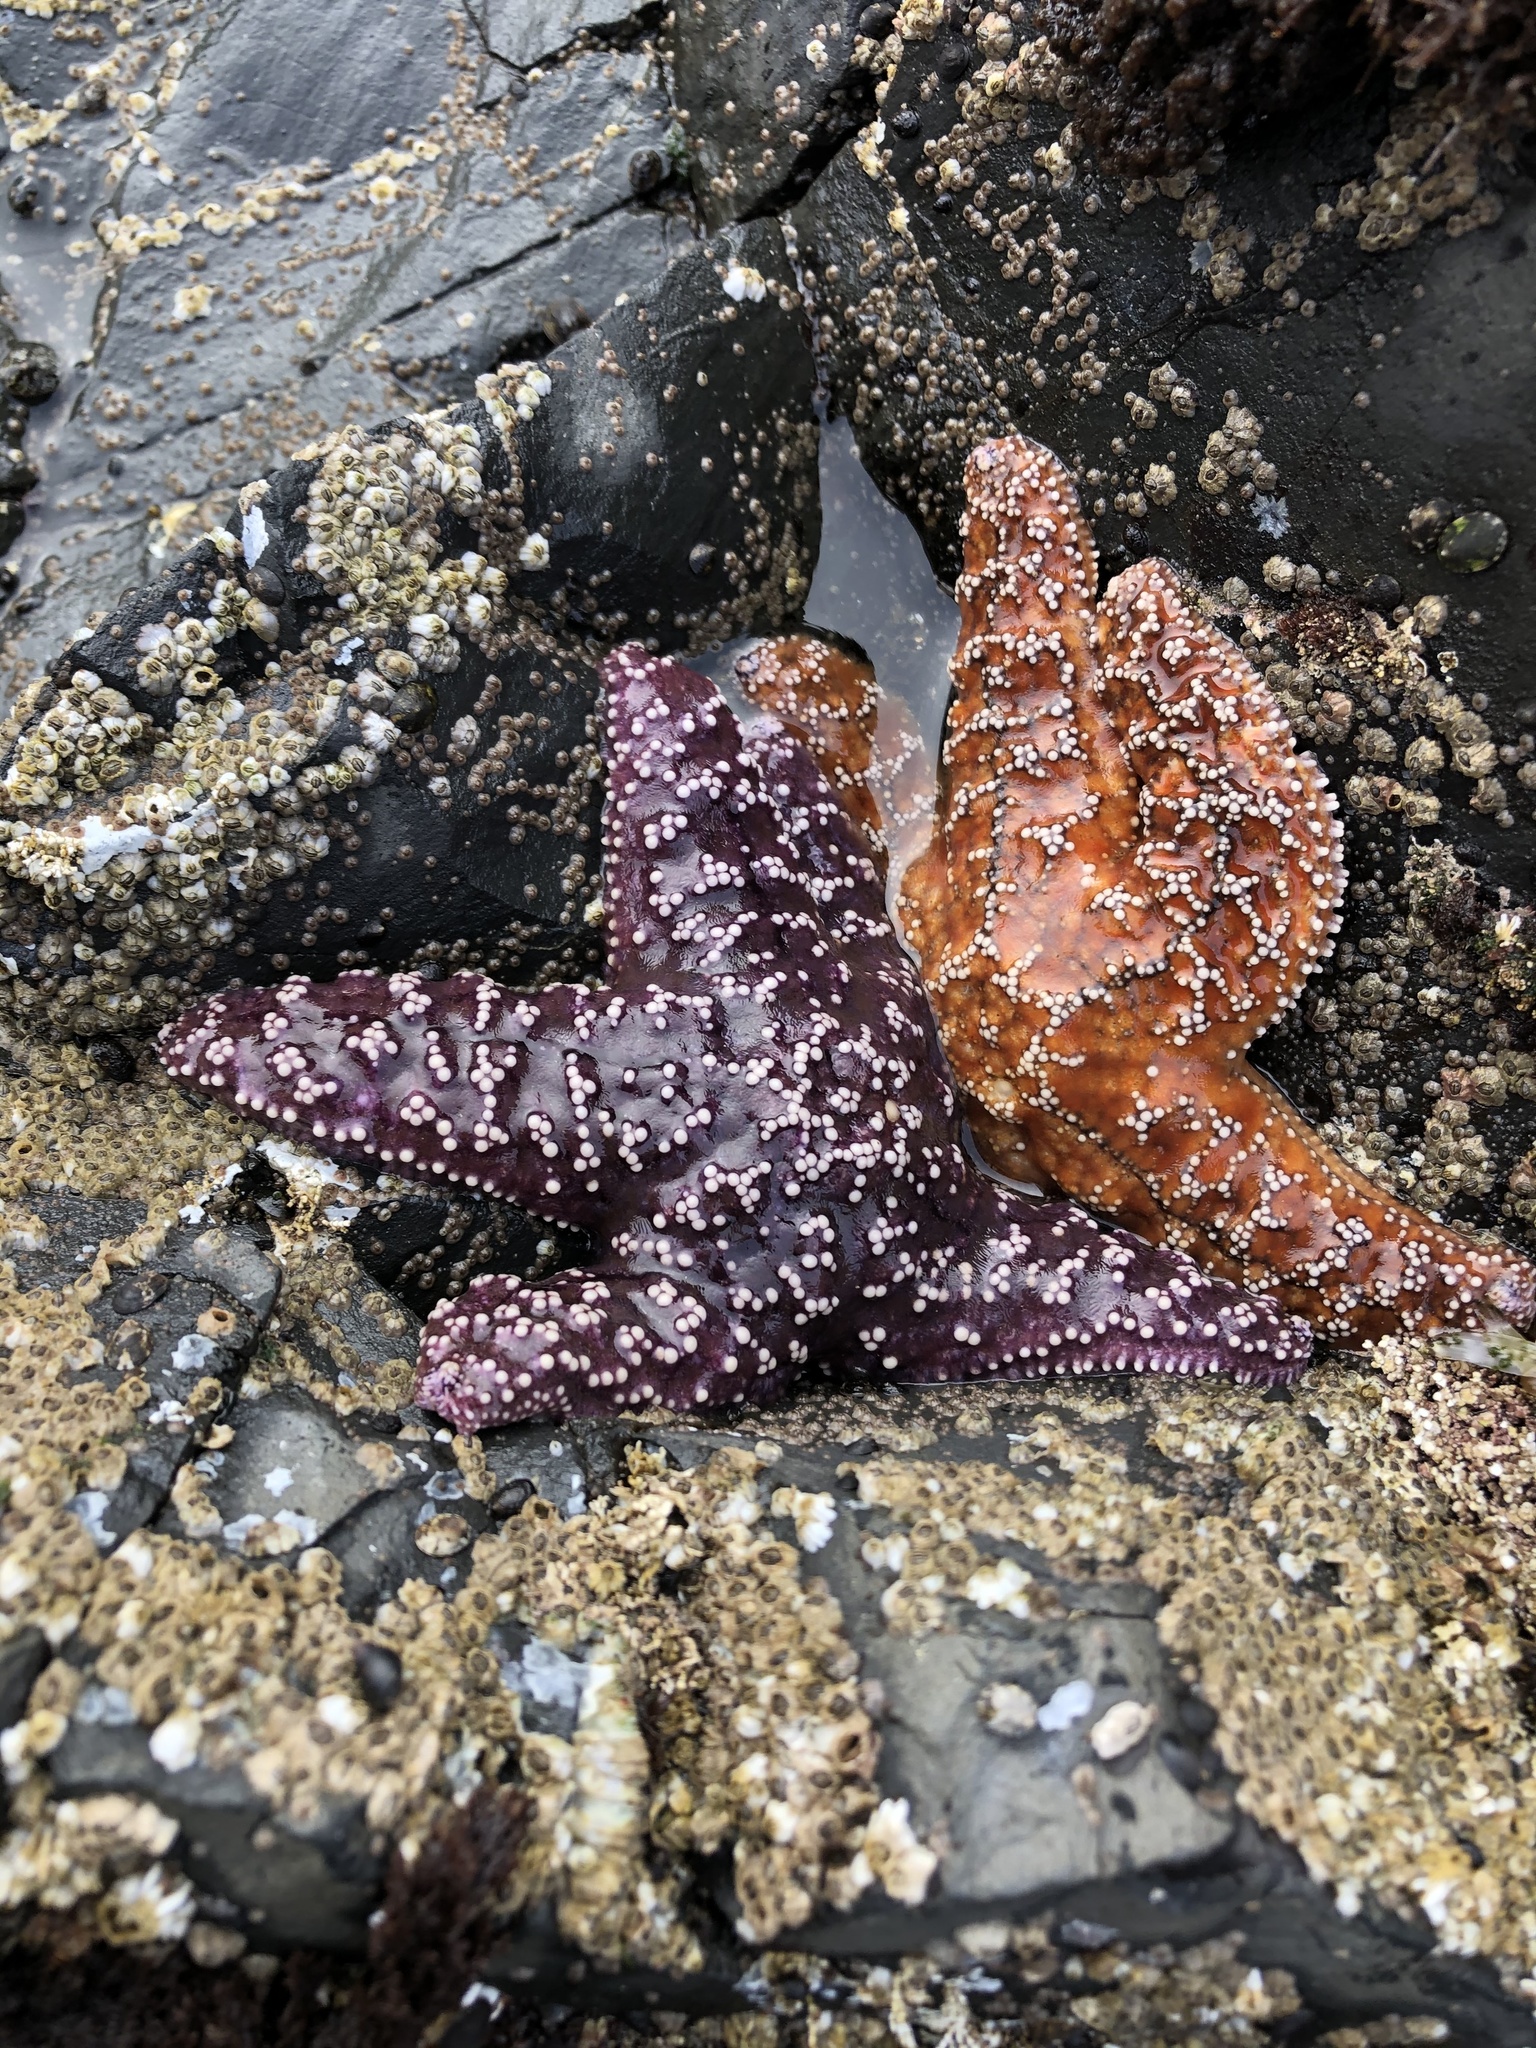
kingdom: Animalia
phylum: Echinodermata
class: Asteroidea
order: Forcipulatida
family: Asteriidae
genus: Pisaster
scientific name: Pisaster ochraceus
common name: Ochre stars
